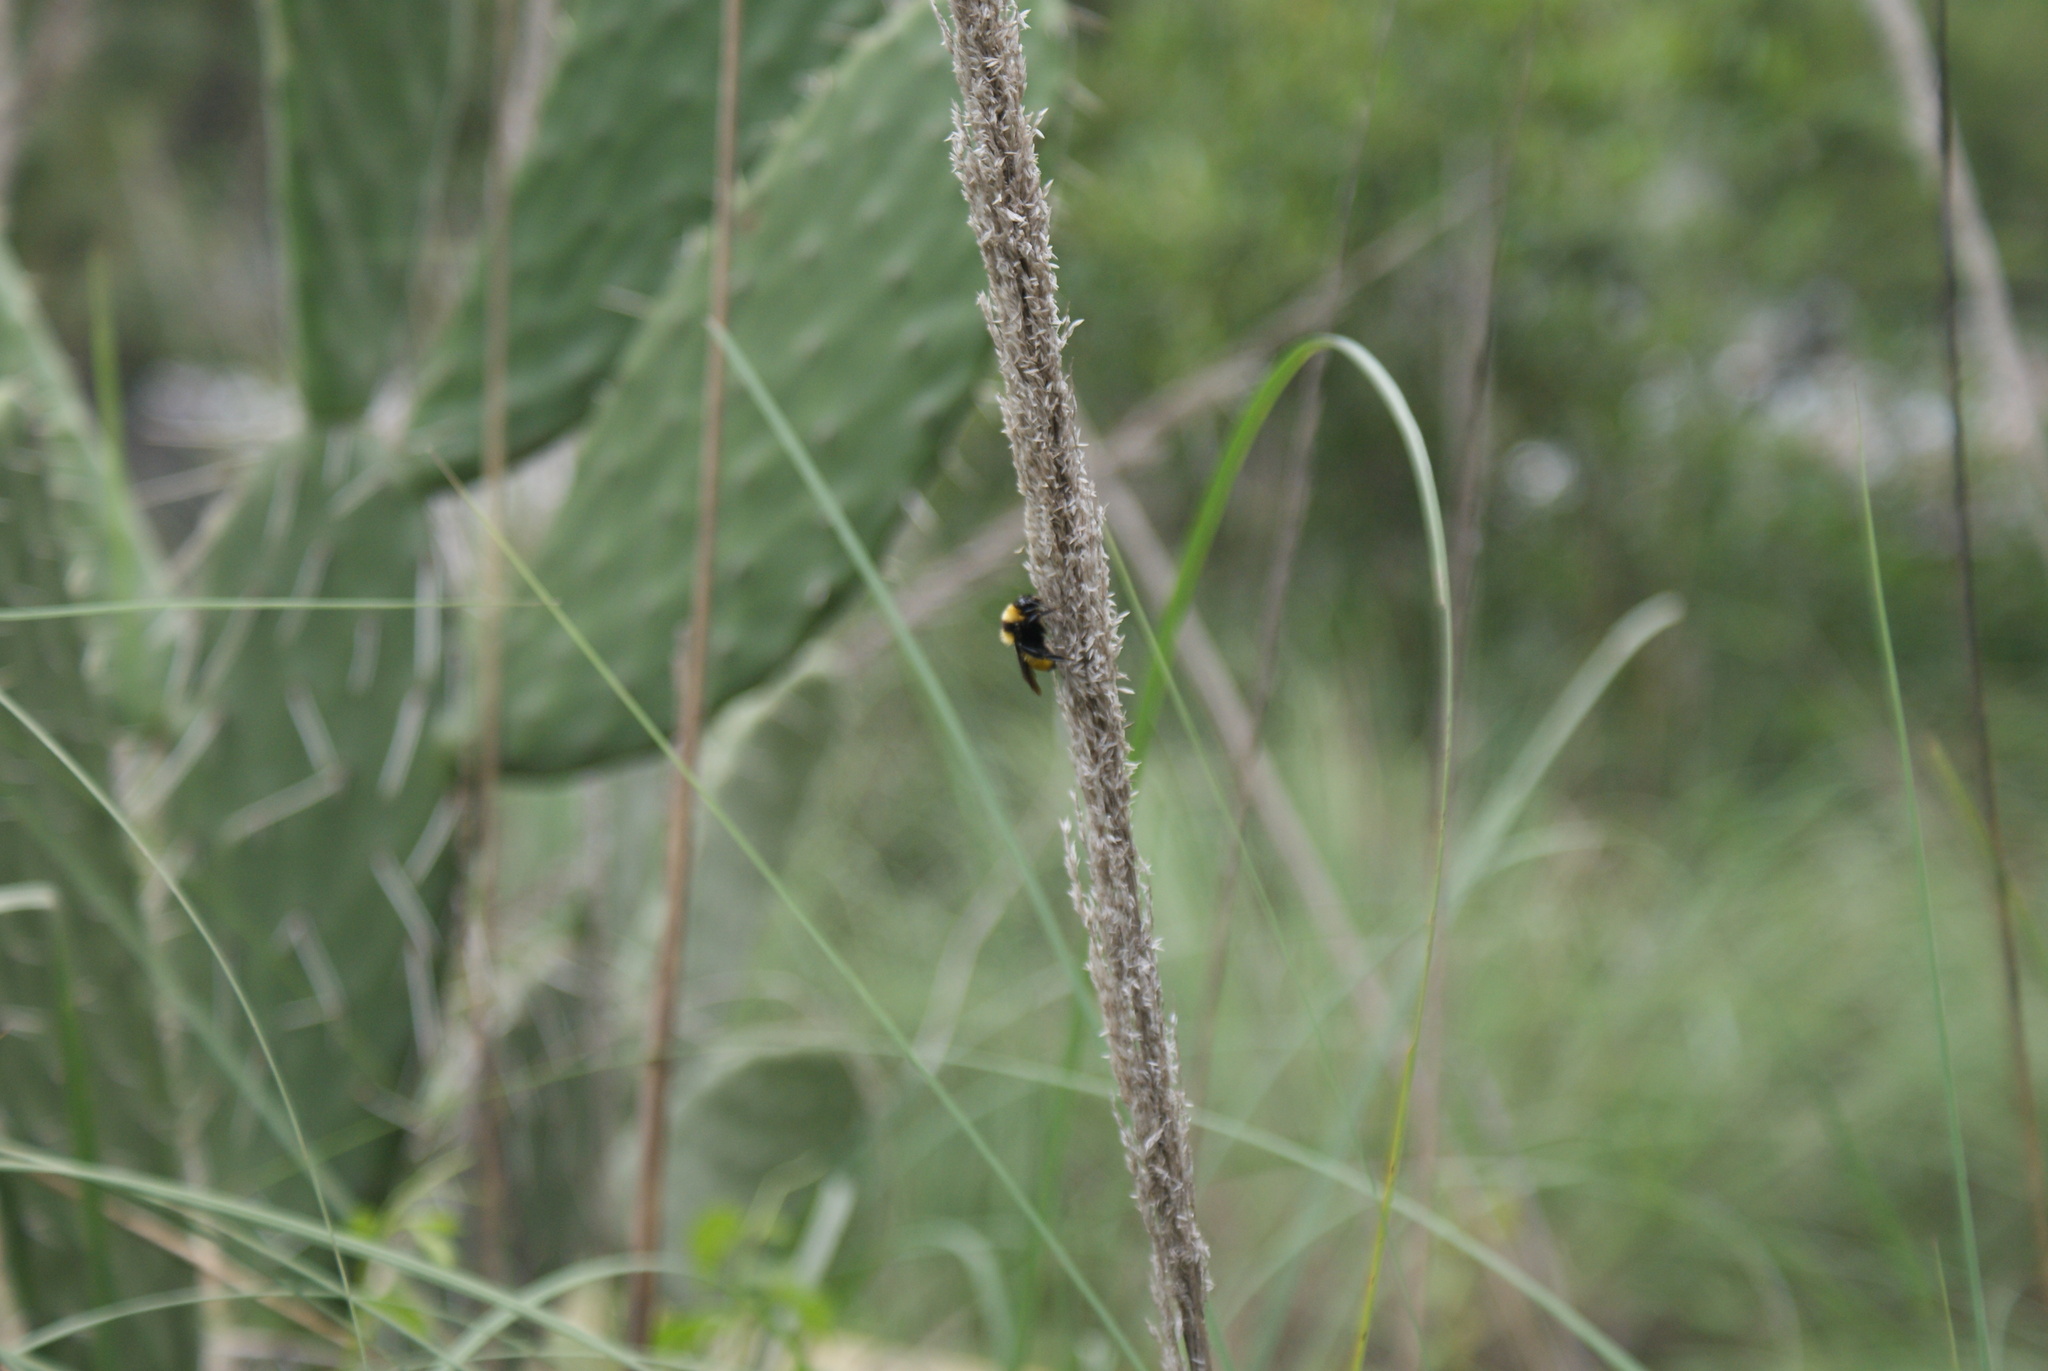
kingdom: Animalia
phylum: Arthropoda
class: Insecta
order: Hymenoptera
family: Apidae
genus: Bombus
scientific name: Bombus sonorus
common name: Sonoran bumble bee
